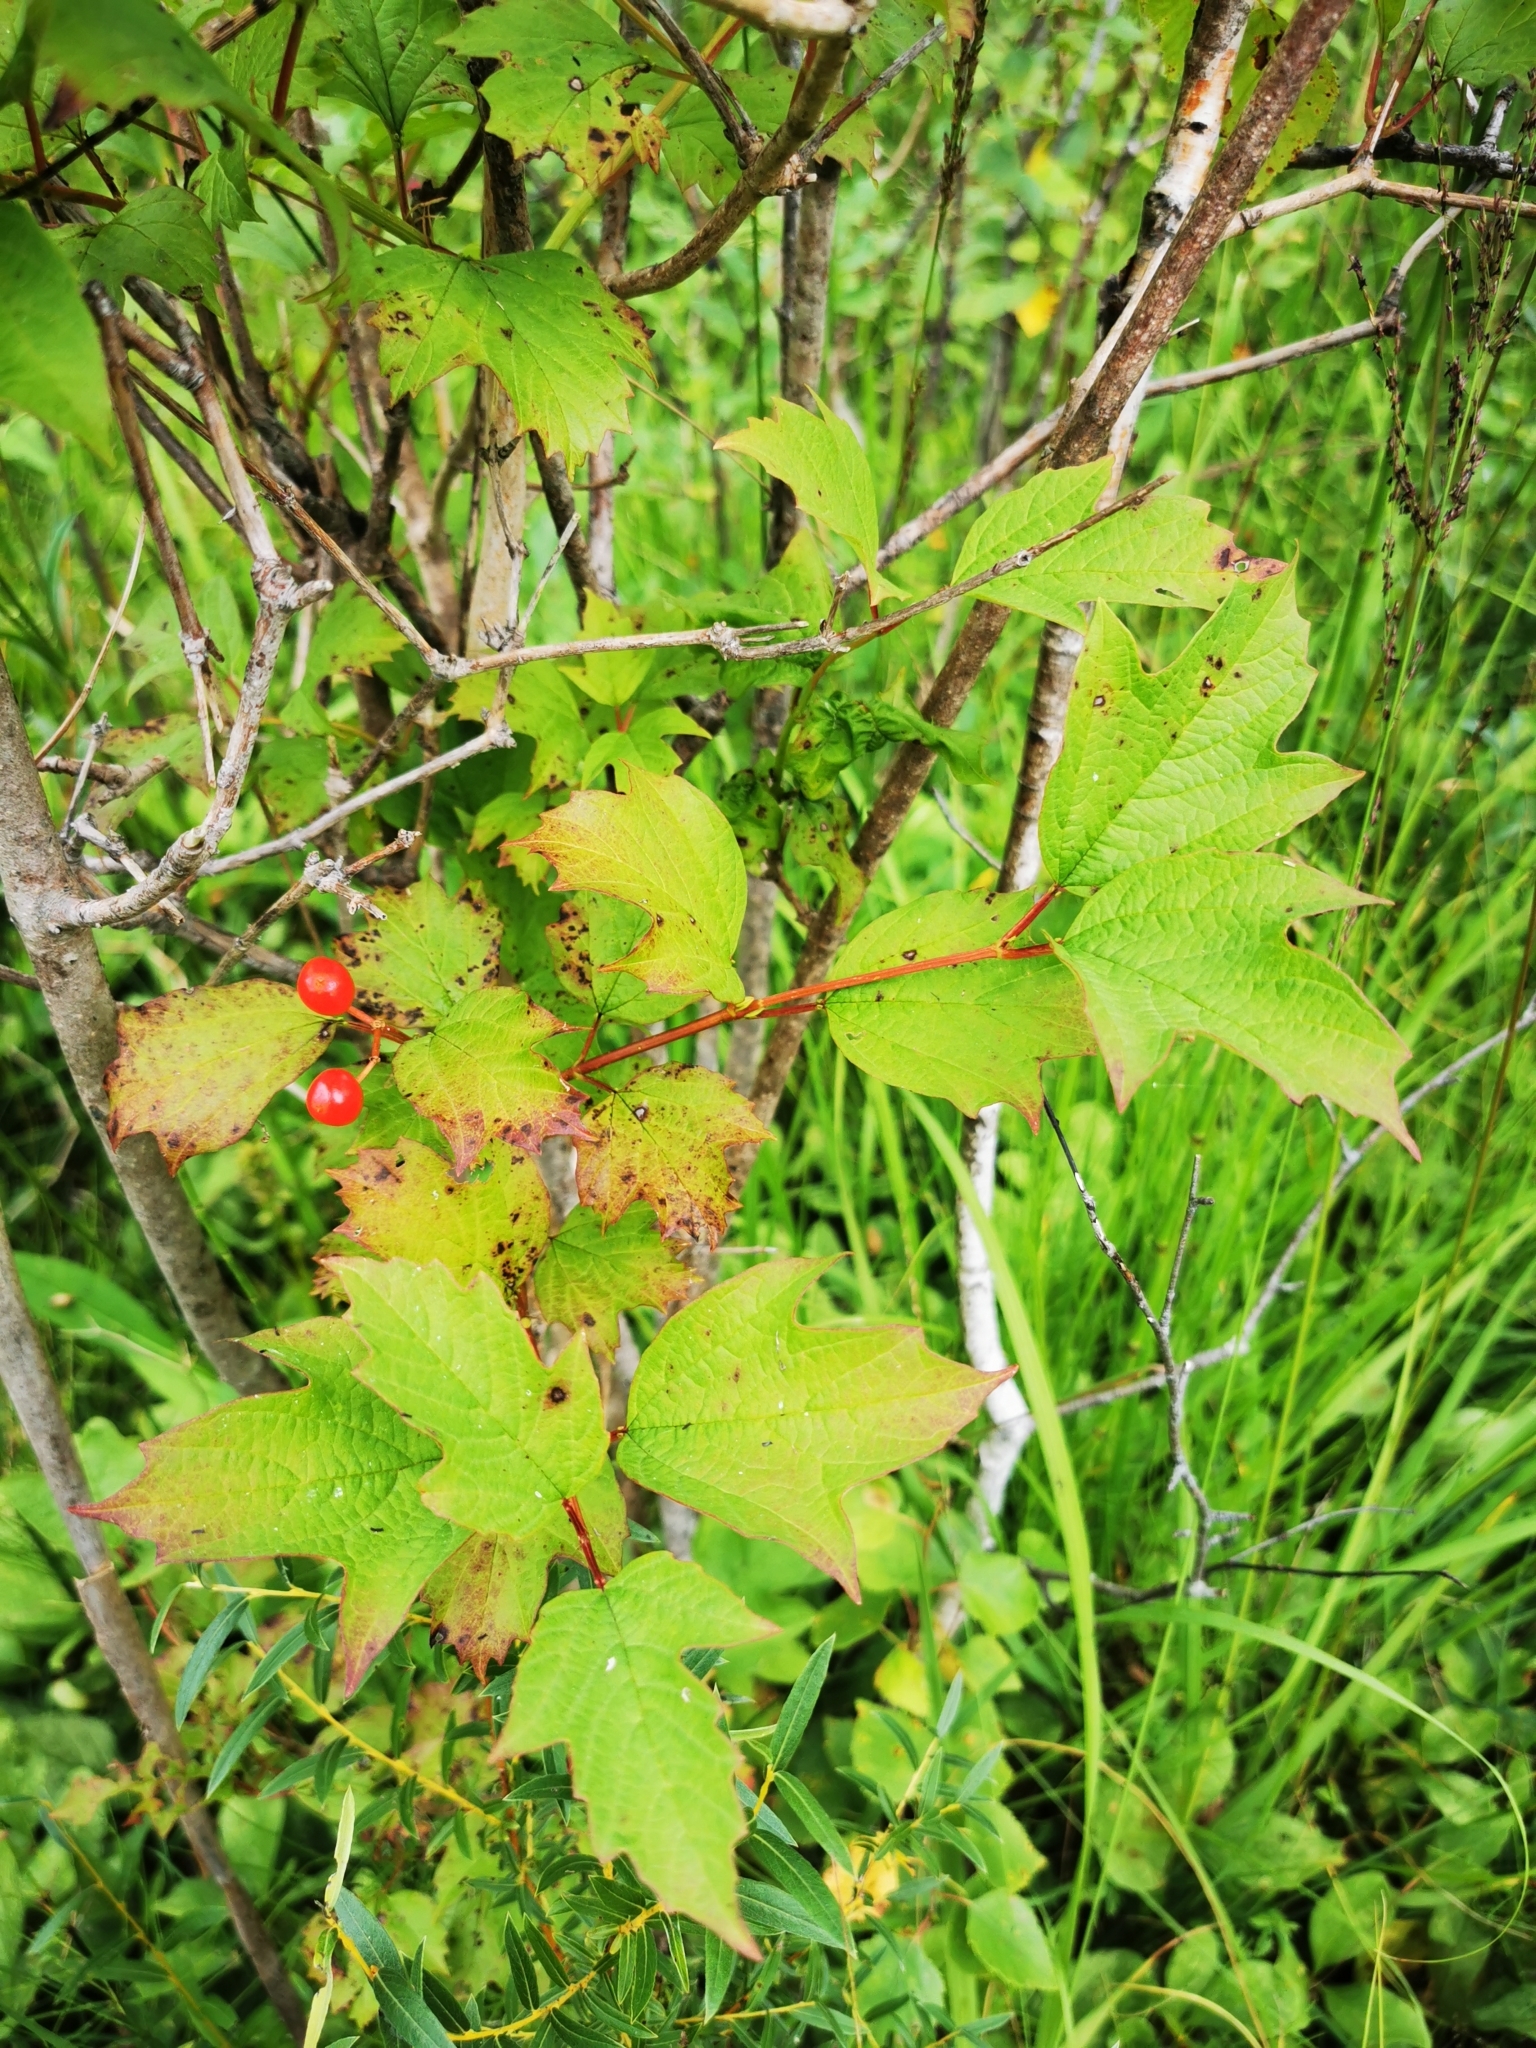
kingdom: Plantae
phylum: Tracheophyta
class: Magnoliopsida
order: Dipsacales
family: Viburnaceae
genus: Viburnum
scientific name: Viburnum opulus
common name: Guelder-rose
